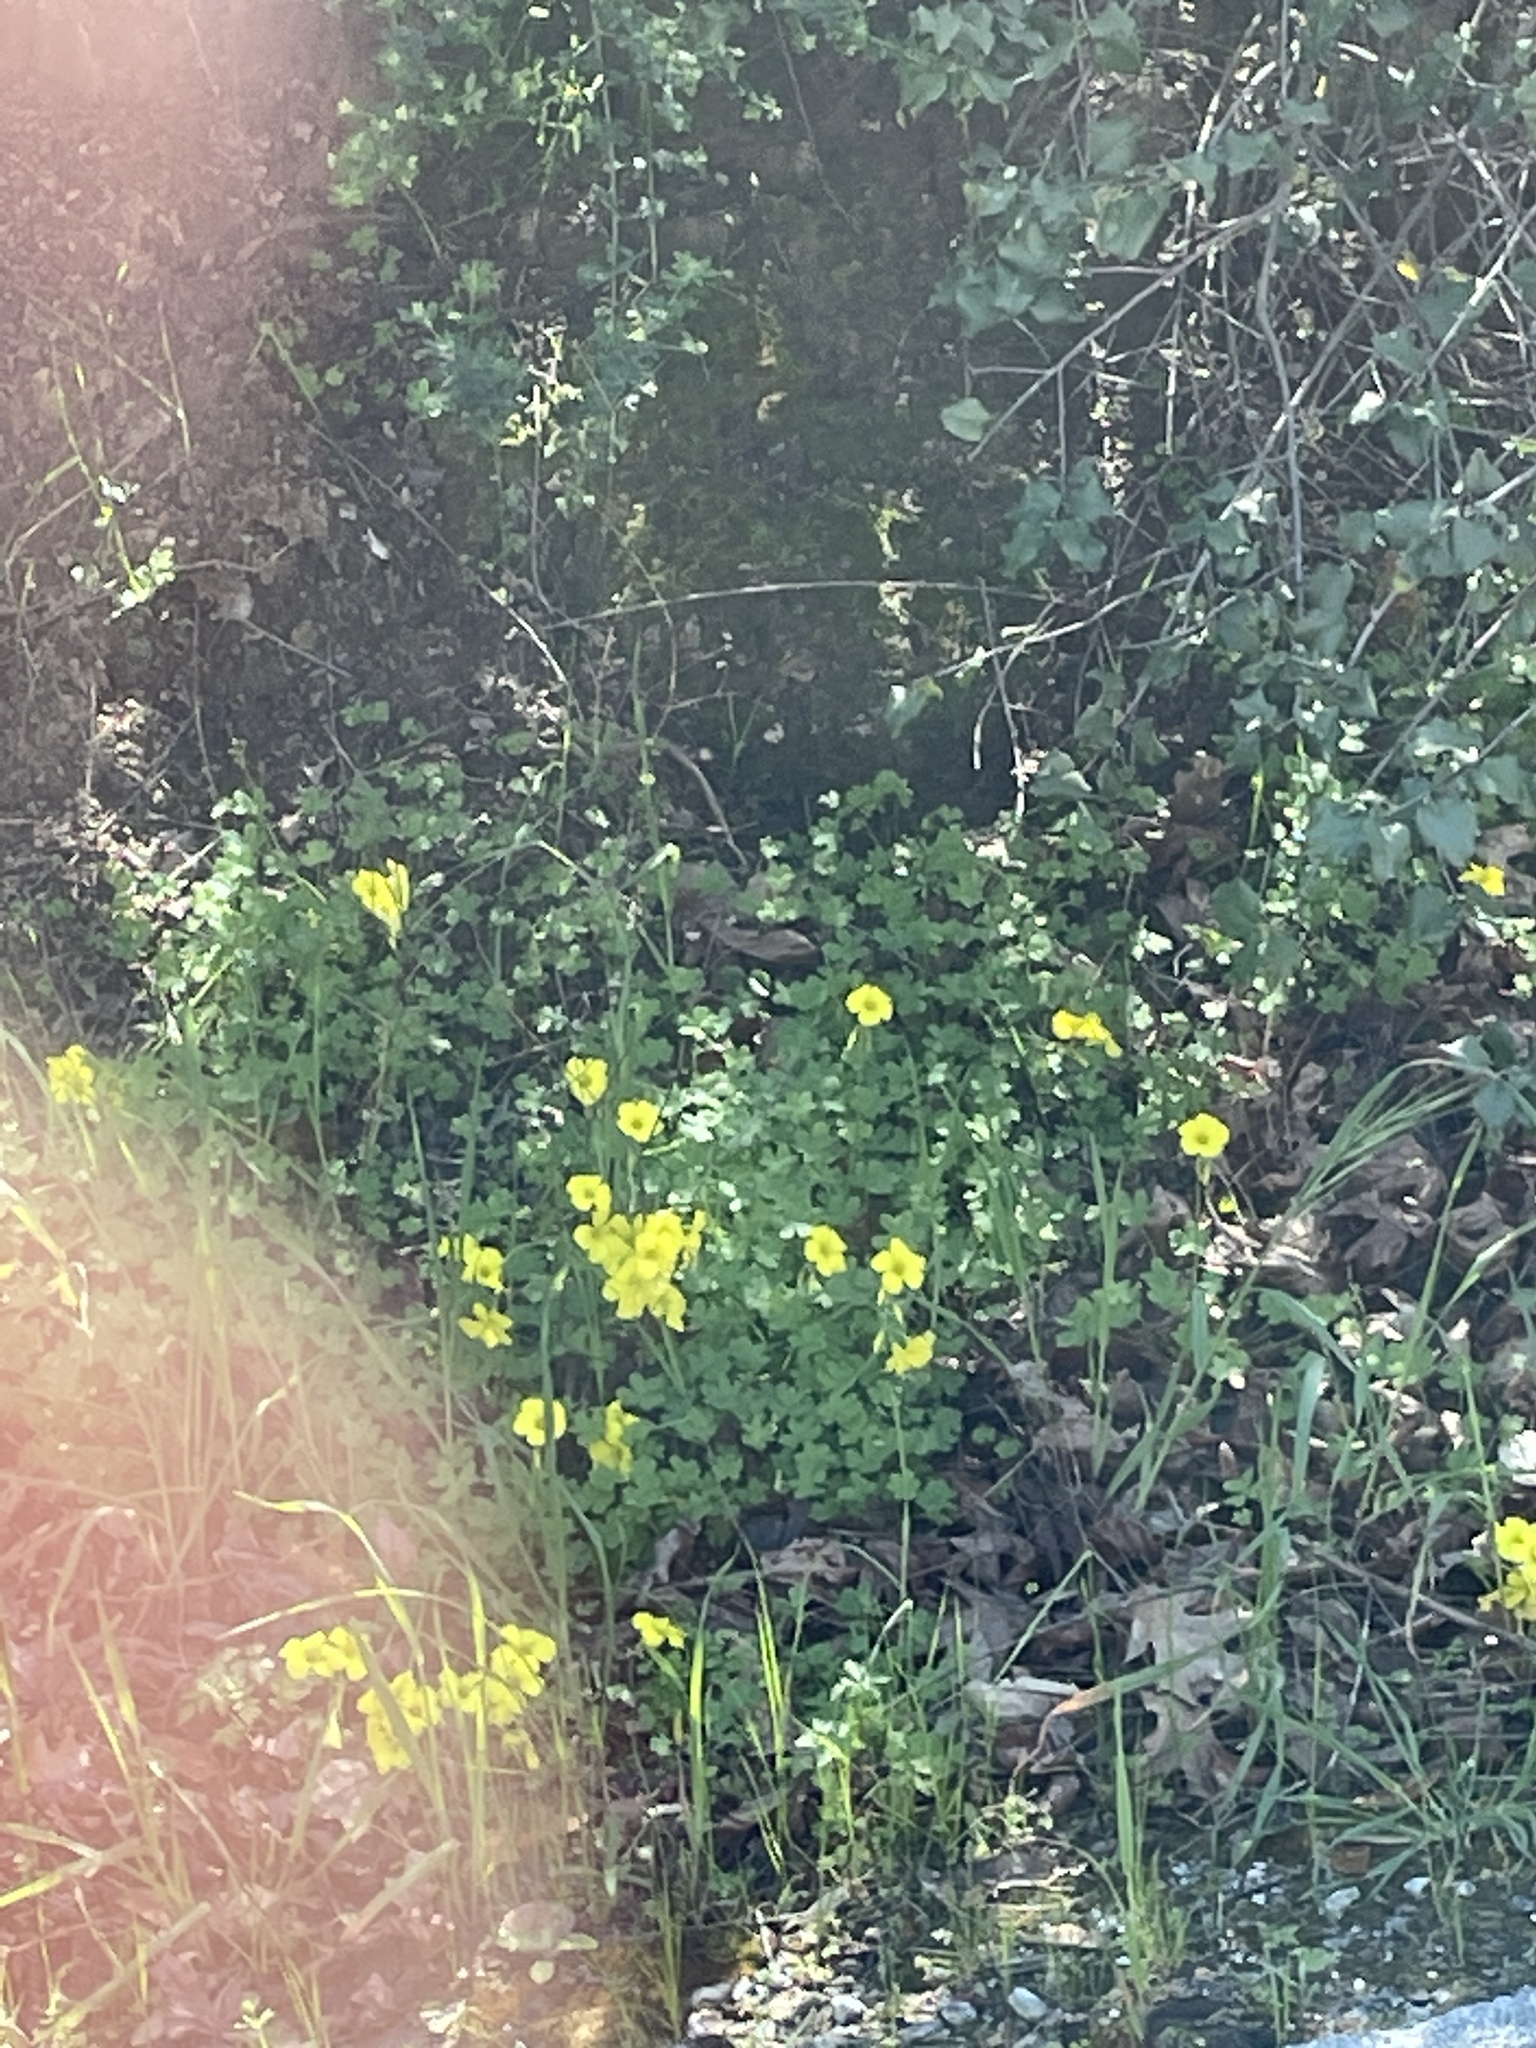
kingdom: Plantae
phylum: Tracheophyta
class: Magnoliopsida
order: Oxalidales
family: Oxalidaceae
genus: Oxalis
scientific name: Oxalis pes-caprae
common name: Bermuda-buttercup
